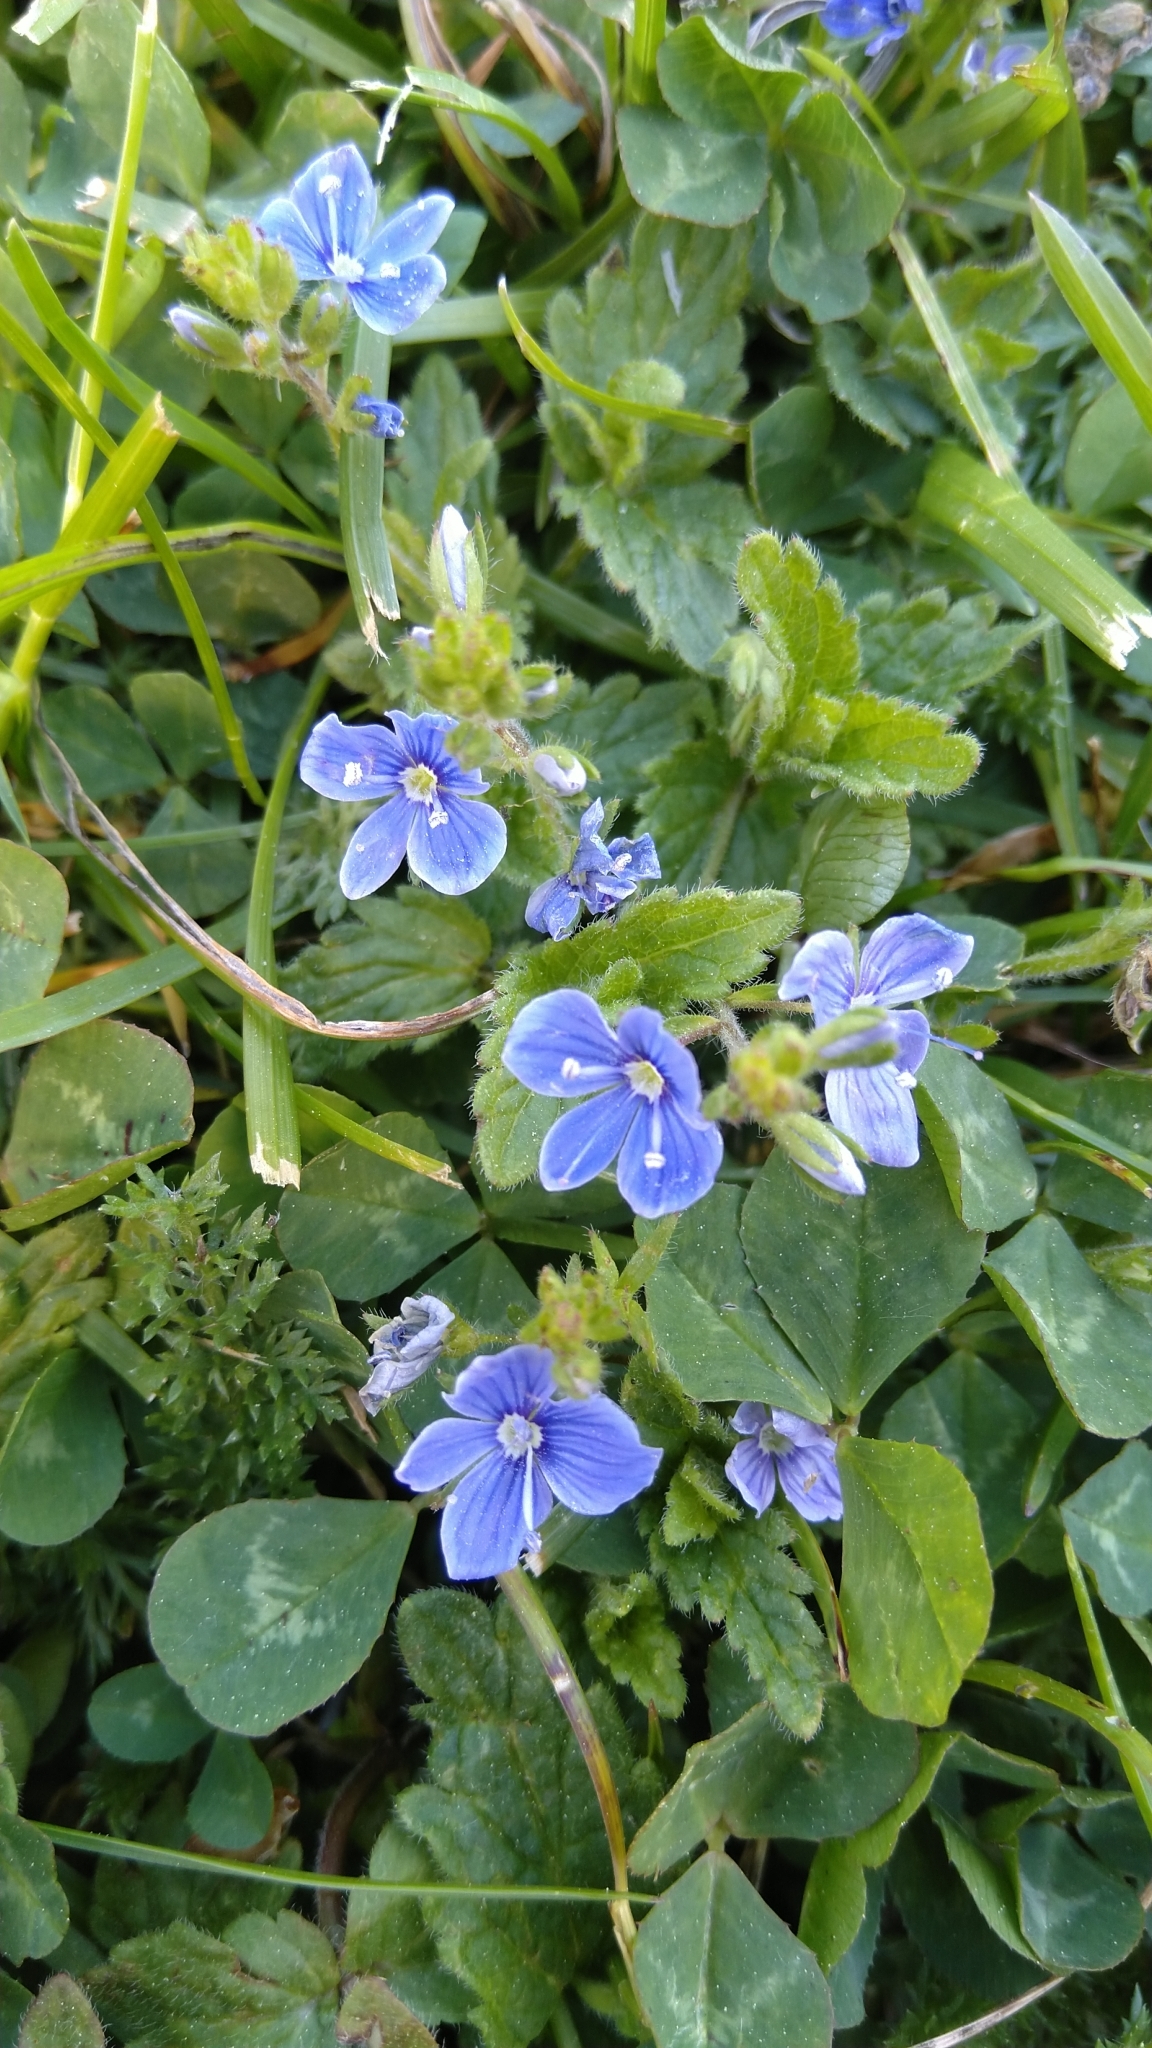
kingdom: Plantae
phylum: Tracheophyta
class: Magnoliopsida
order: Lamiales
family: Plantaginaceae
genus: Veronica
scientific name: Veronica chamaedrys
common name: Germander speedwell
